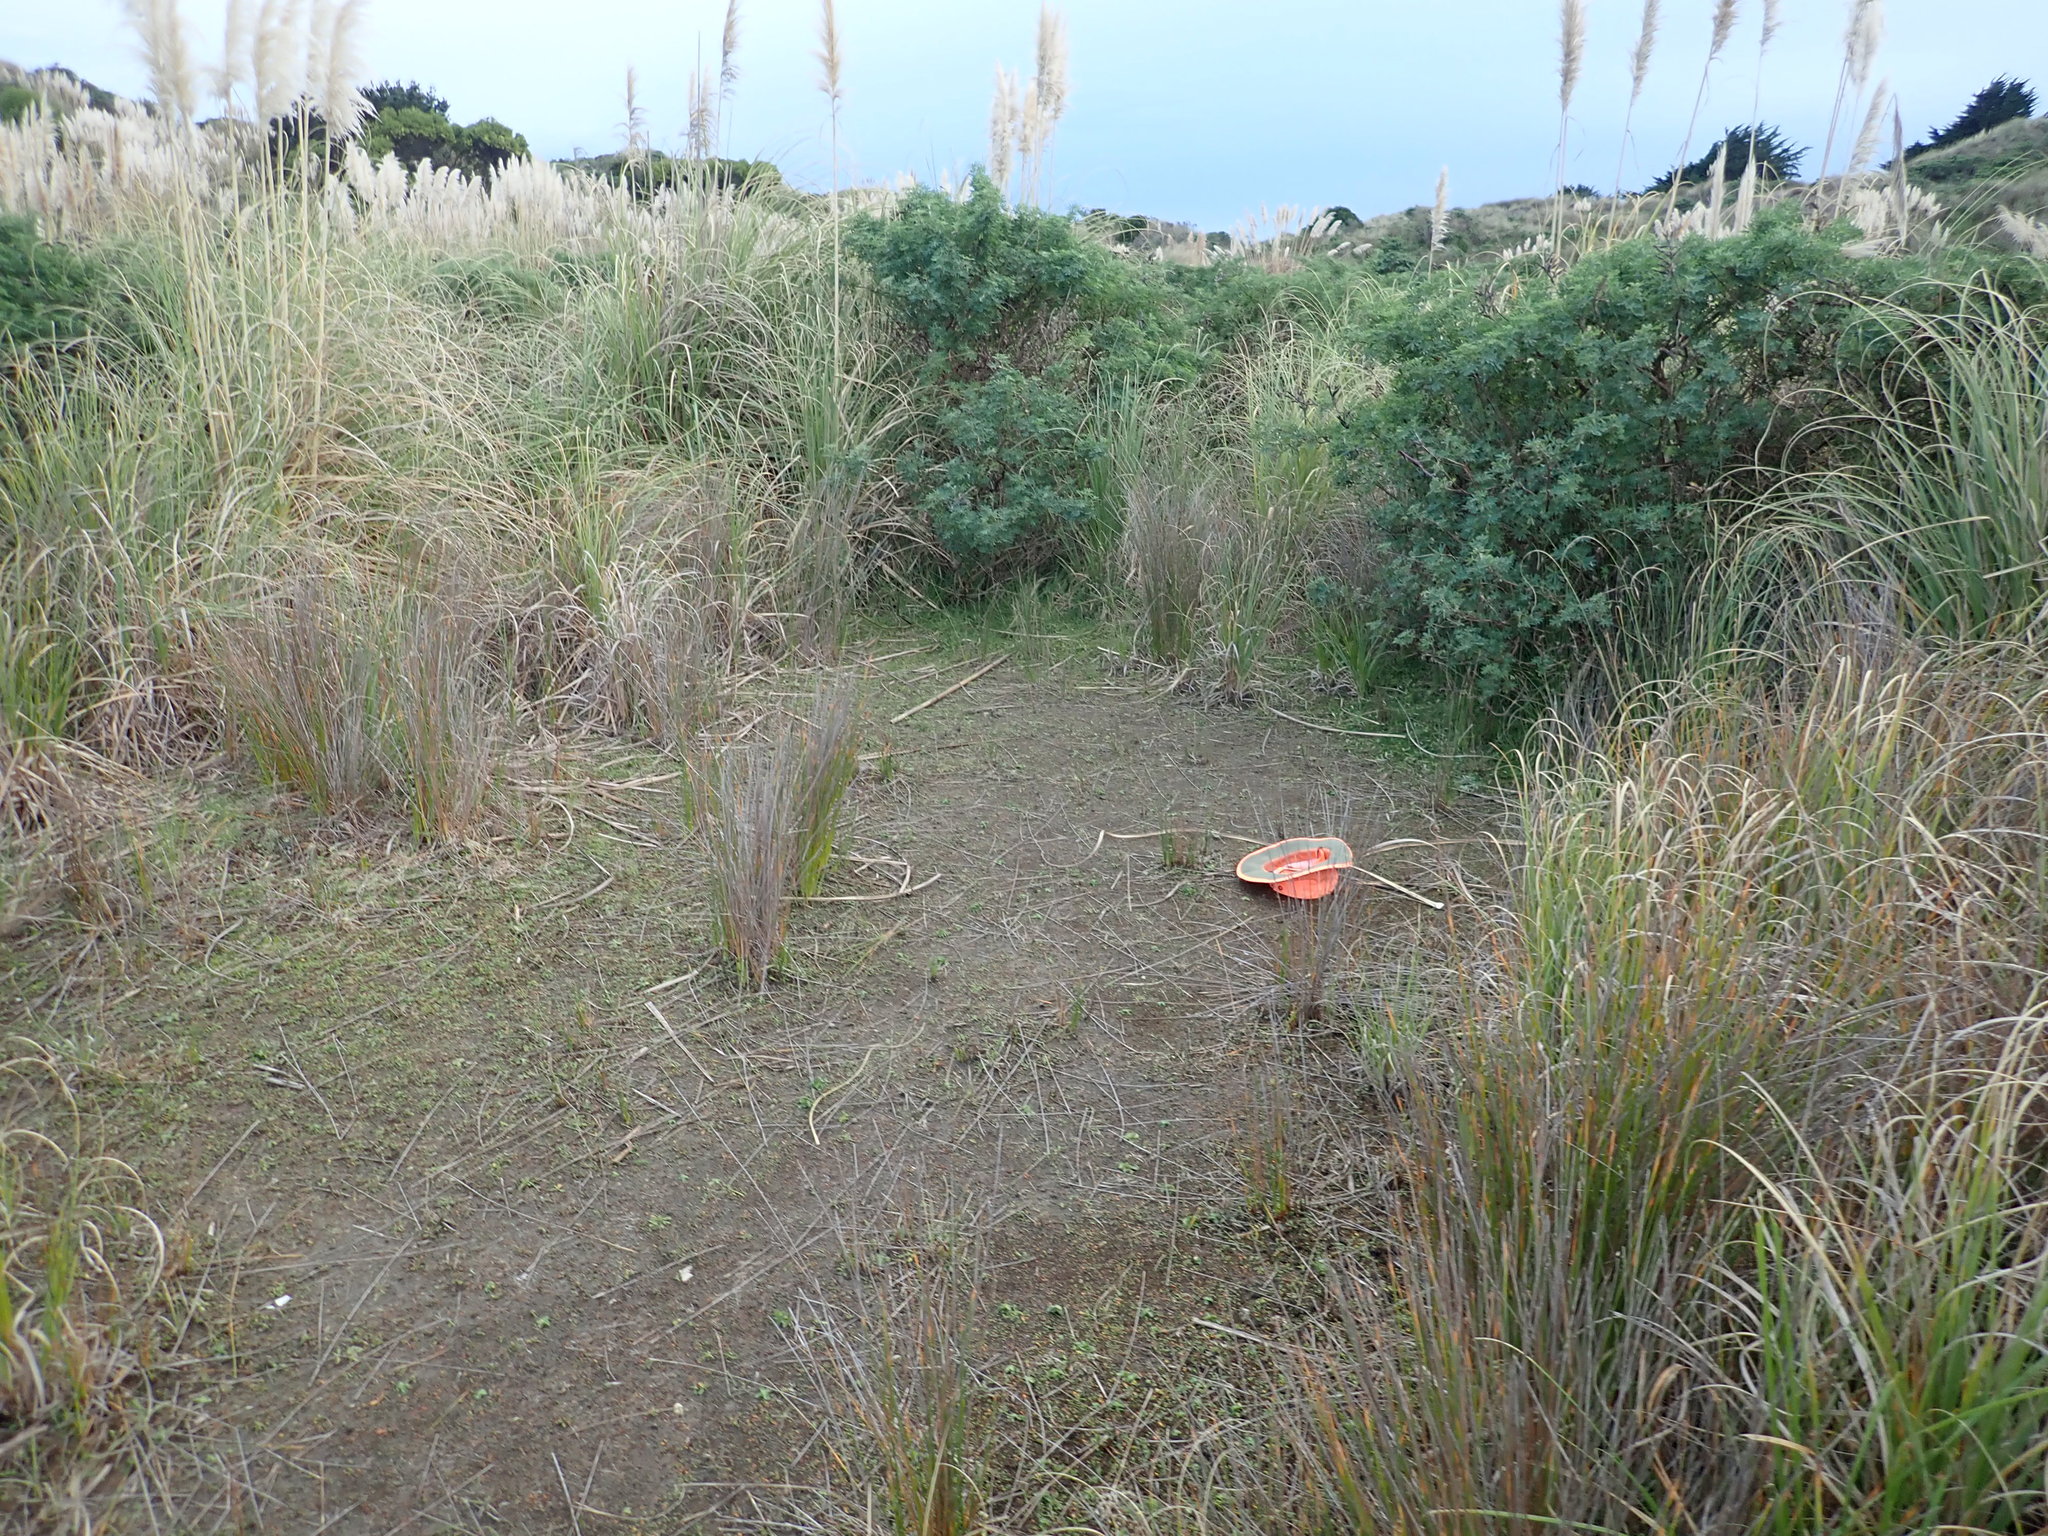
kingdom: Plantae
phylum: Tracheophyta
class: Magnoliopsida
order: Asterales
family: Goodeniaceae
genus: Goodenia
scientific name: Goodenia heenanii
